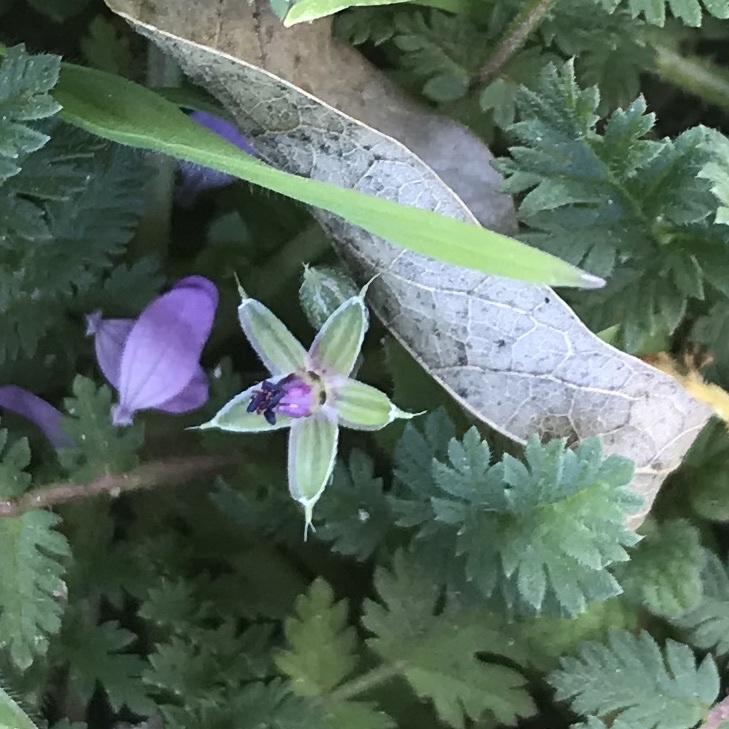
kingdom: Plantae
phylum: Tracheophyta
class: Magnoliopsida
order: Geraniales
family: Geraniaceae
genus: Erodium
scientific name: Erodium cicutarium
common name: Common stork's-bill
